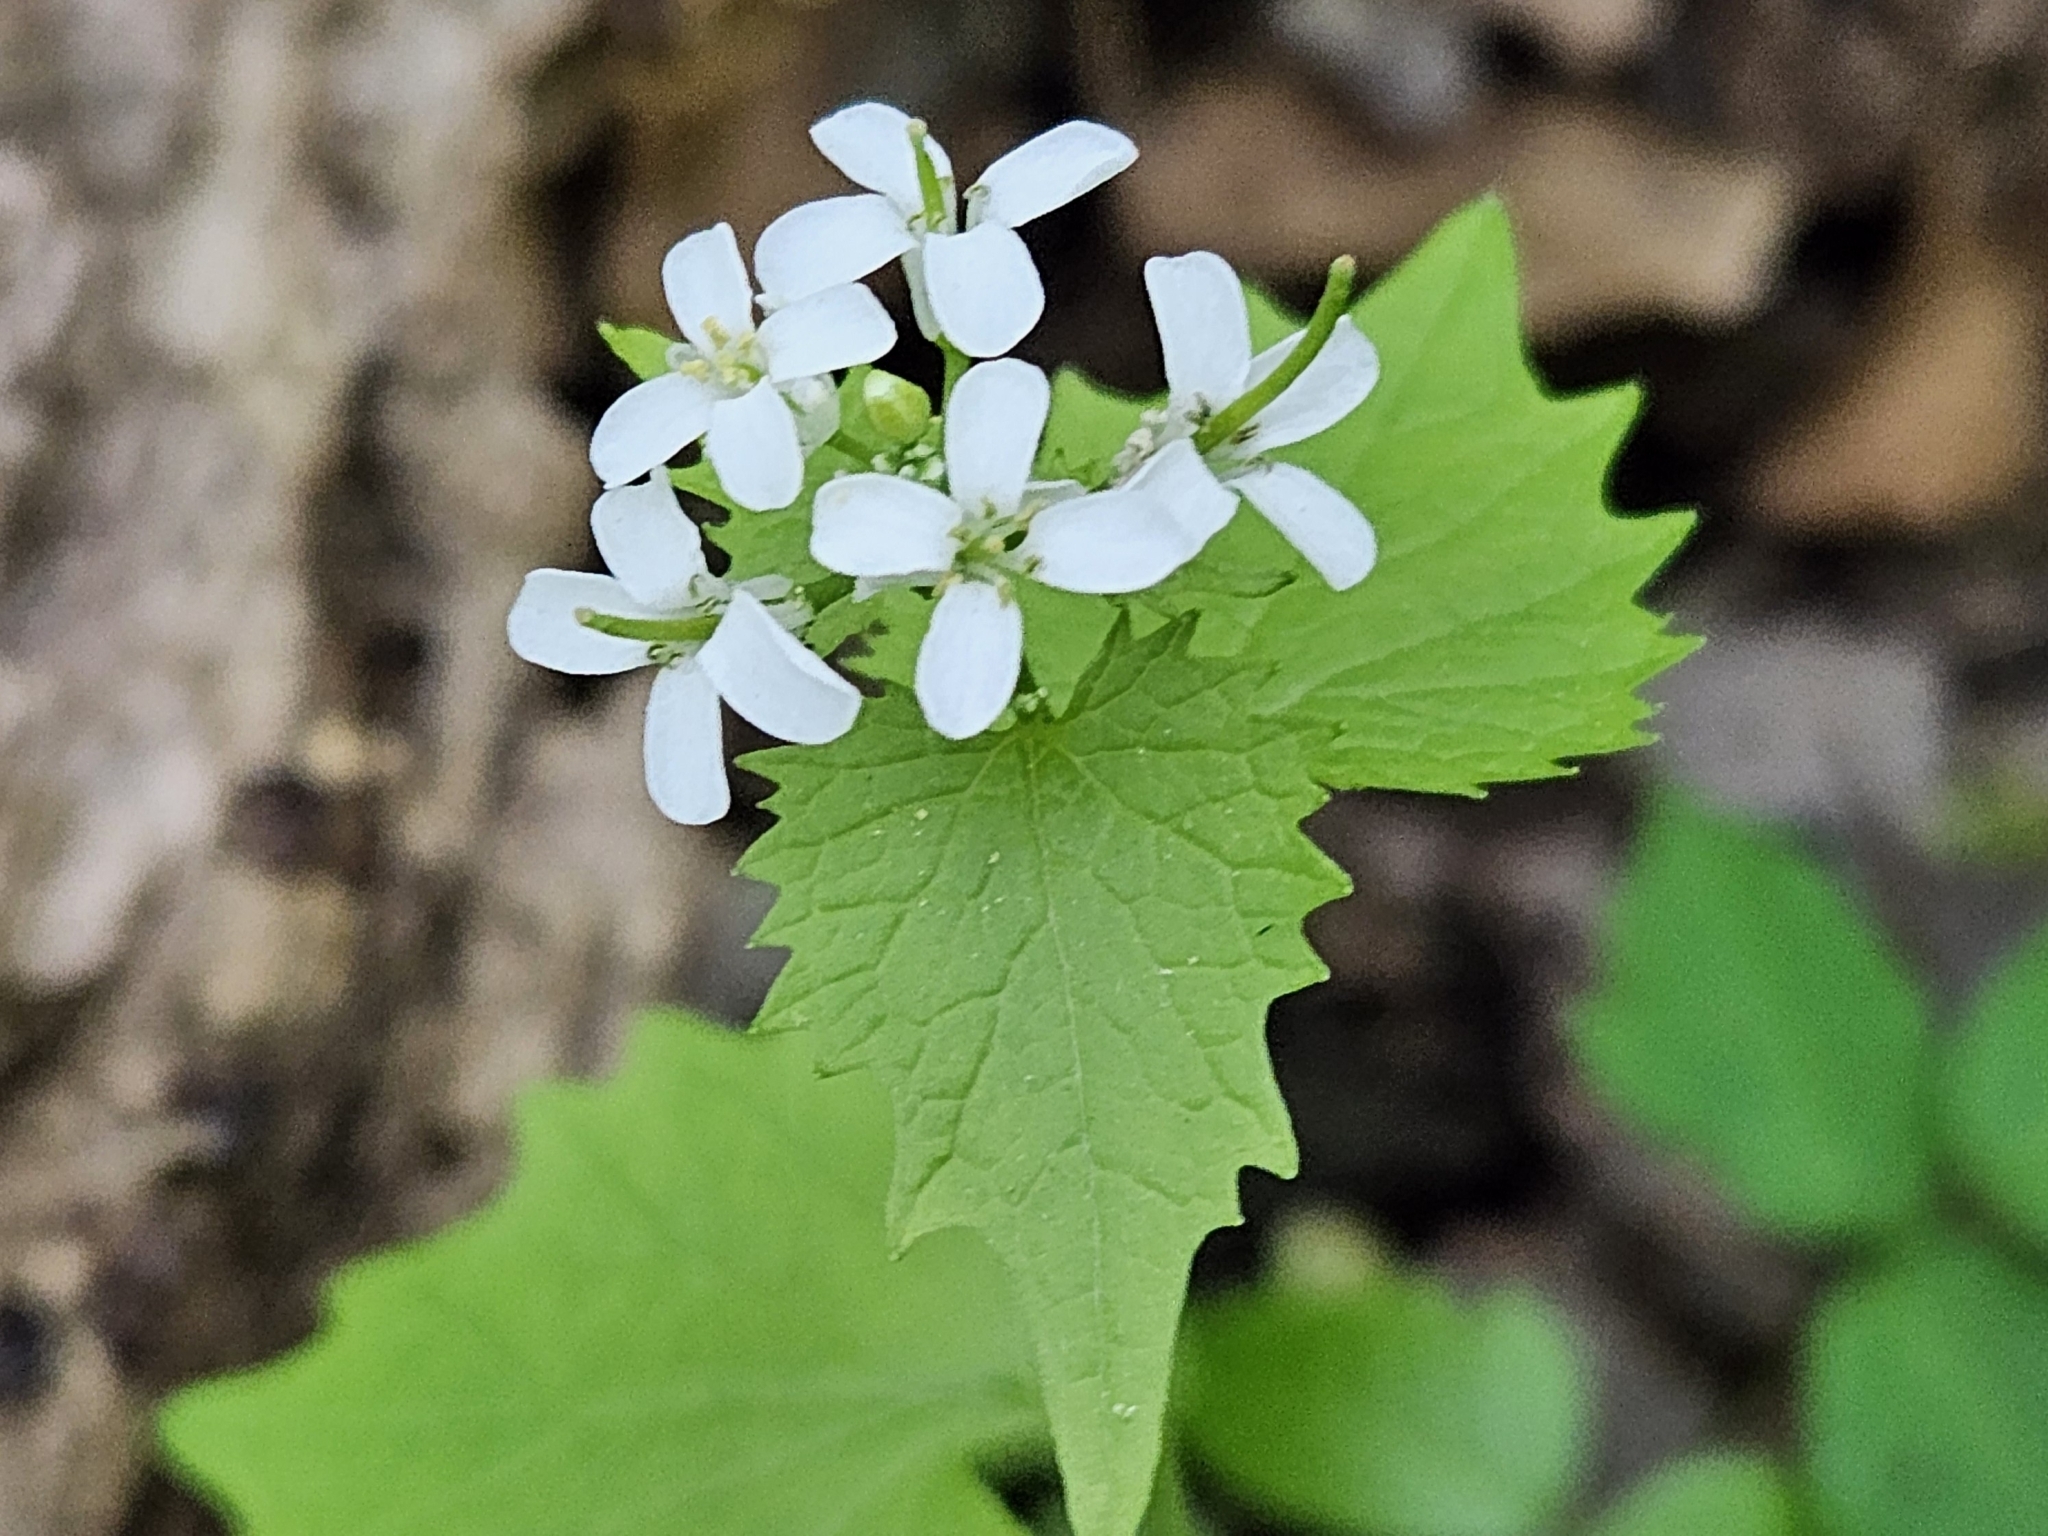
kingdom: Plantae
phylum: Tracheophyta
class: Magnoliopsida
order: Brassicales
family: Brassicaceae
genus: Alliaria
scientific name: Alliaria petiolata
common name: Garlic mustard
